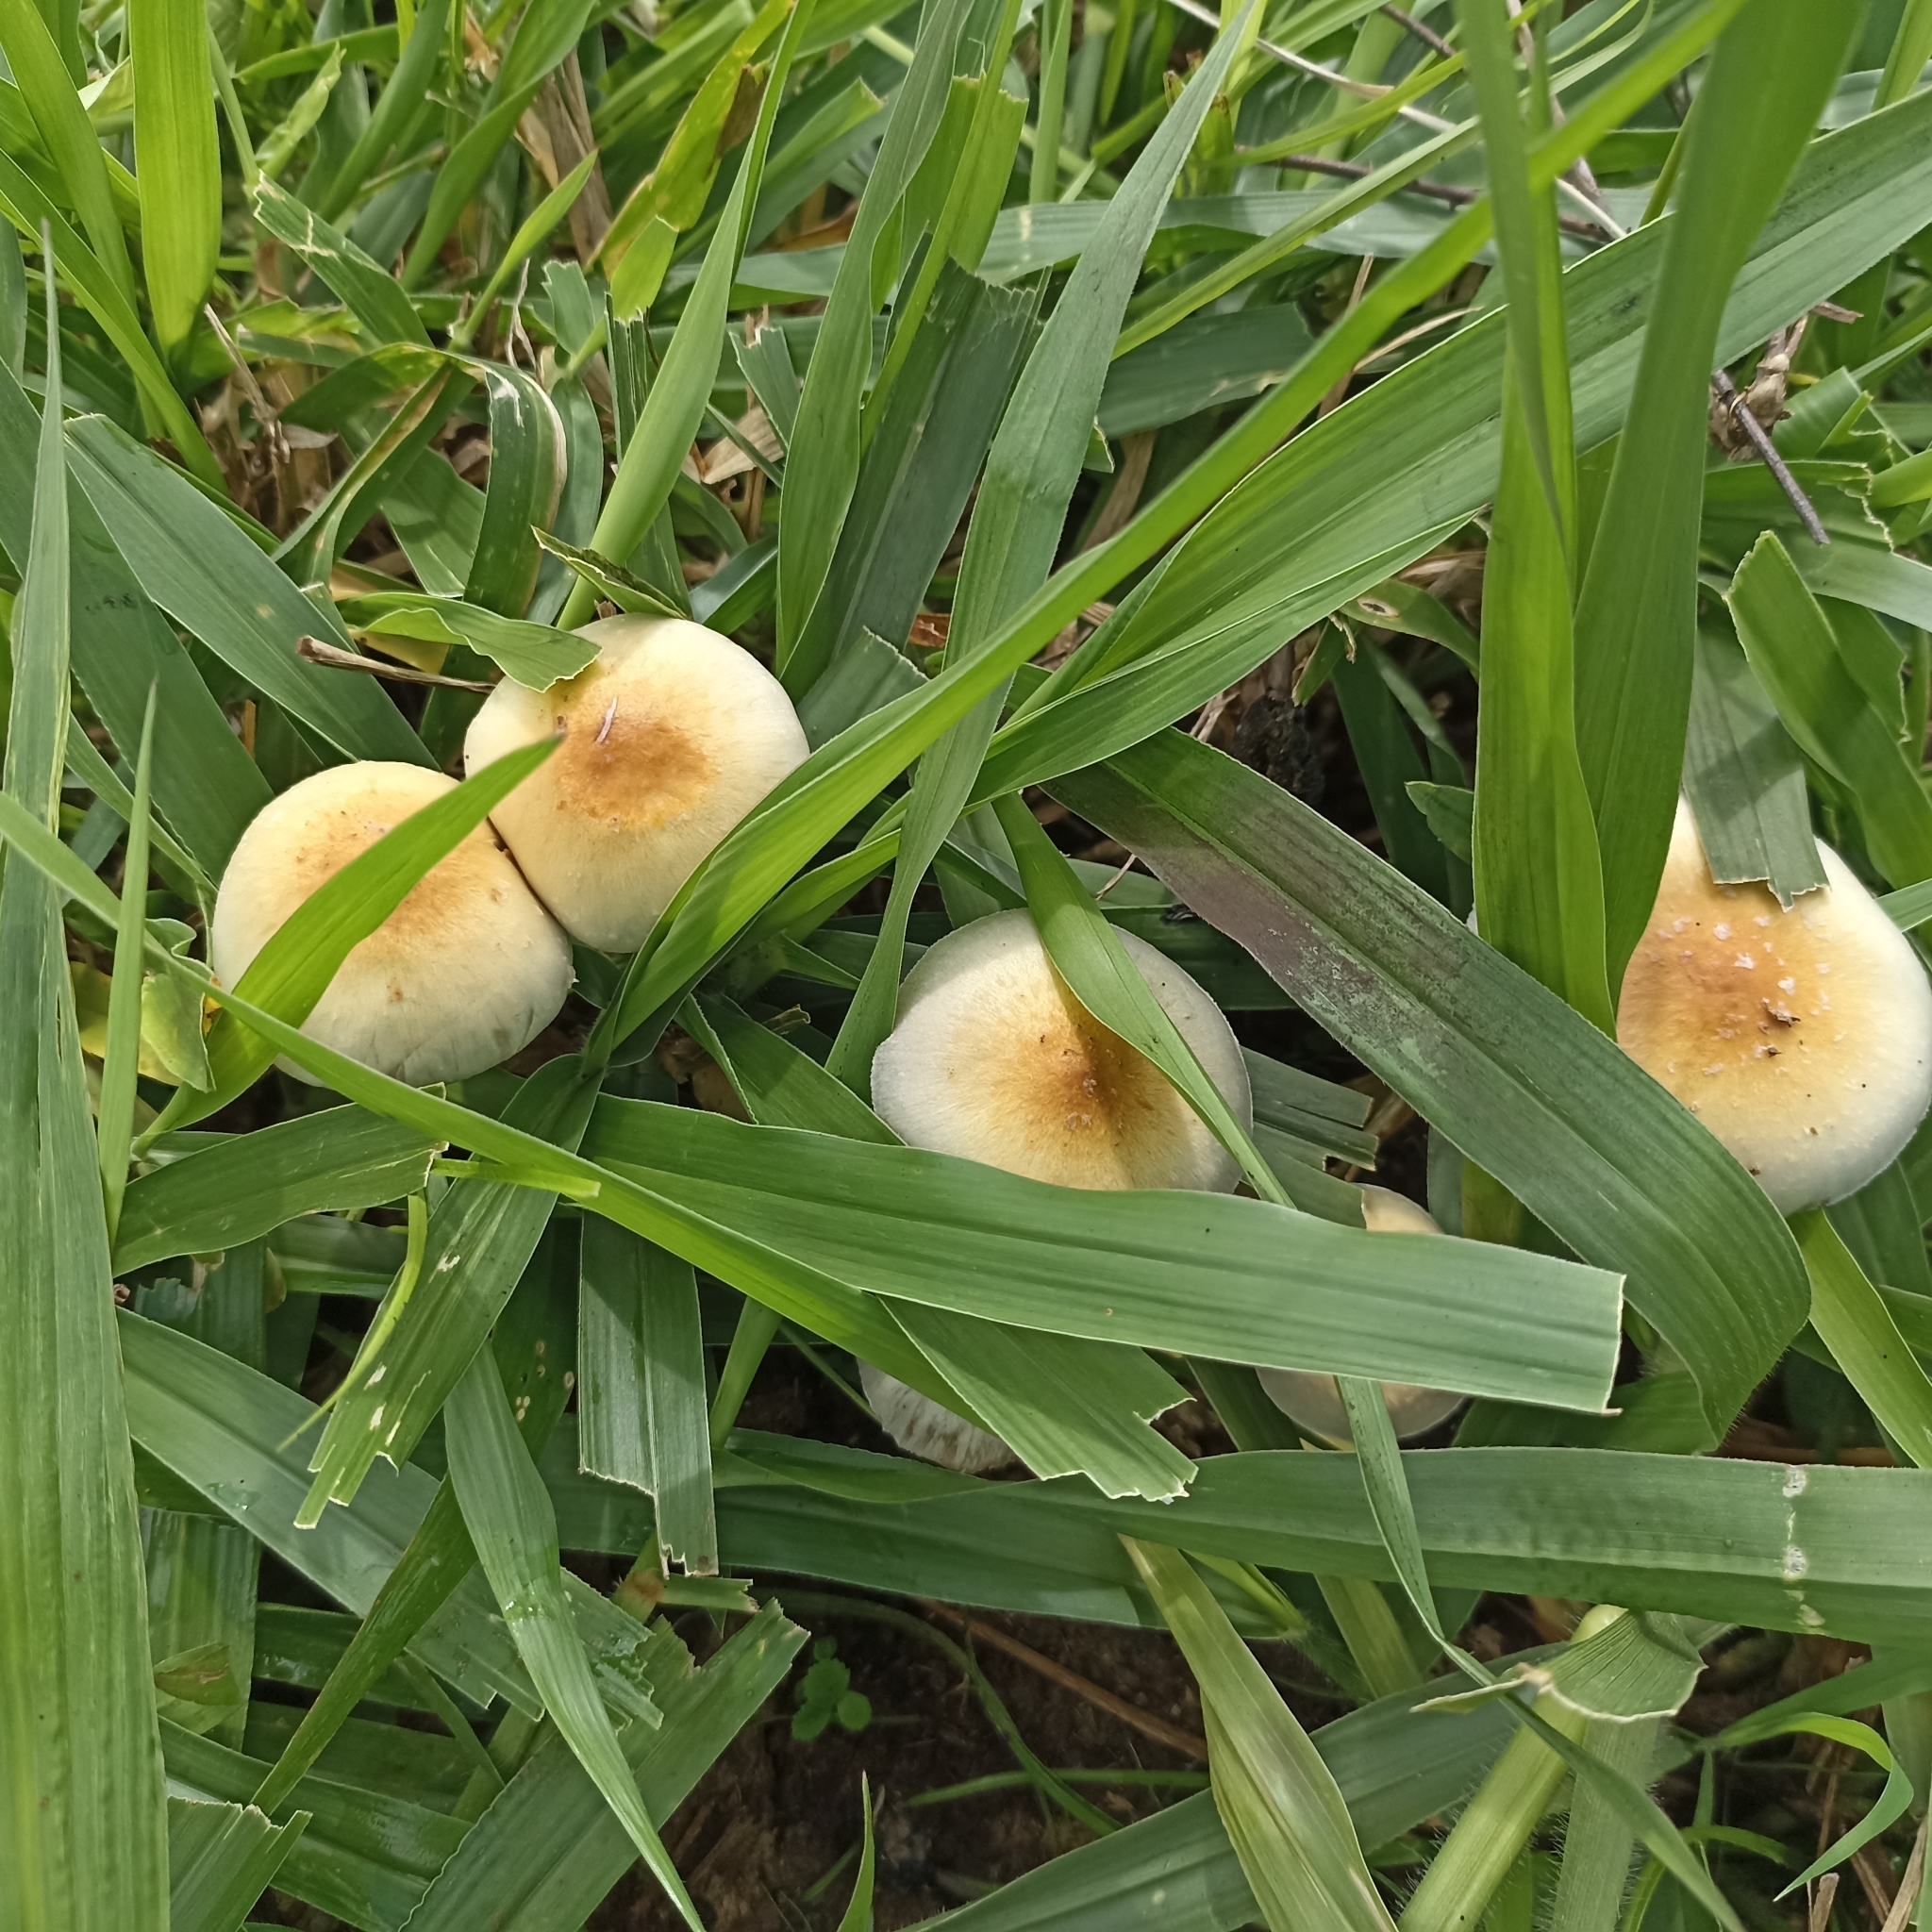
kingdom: Fungi
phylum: Basidiomycota
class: Agaricomycetes
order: Agaricales
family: Hymenogastraceae
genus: Psilocybe
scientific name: Psilocybe cubensis
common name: Golden brownie
